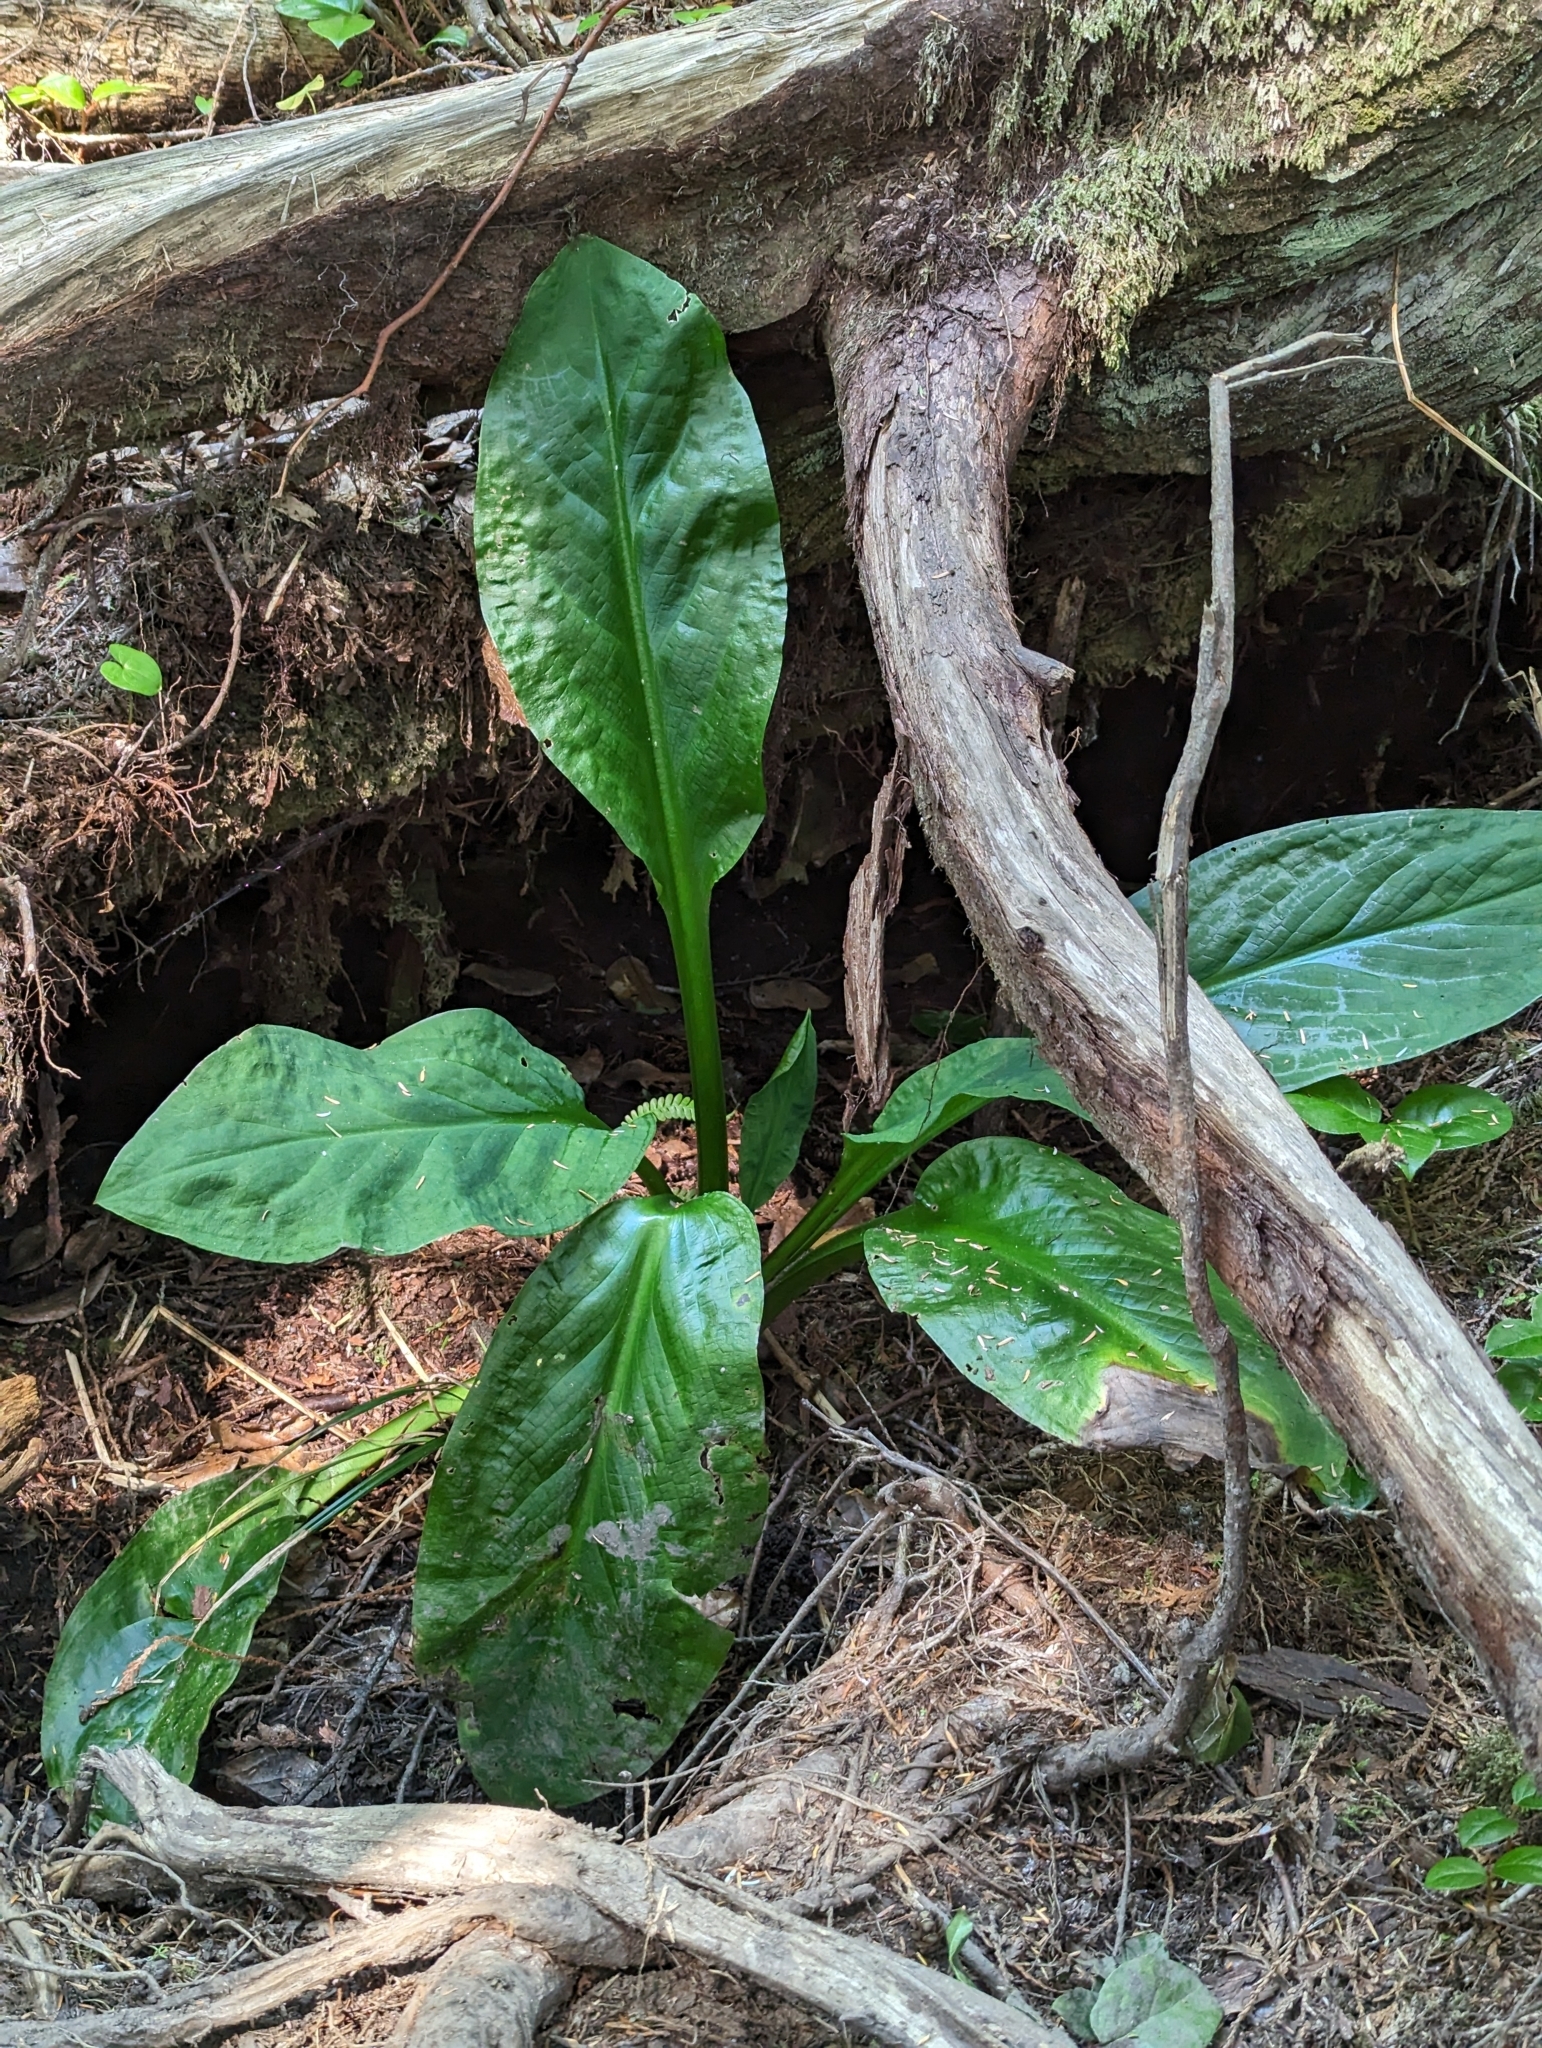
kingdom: Plantae
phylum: Tracheophyta
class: Liliopsida
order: Alismatales
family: Araceae
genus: Lysichiton
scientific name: Lysichiton americanus
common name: American skunk cabbage
